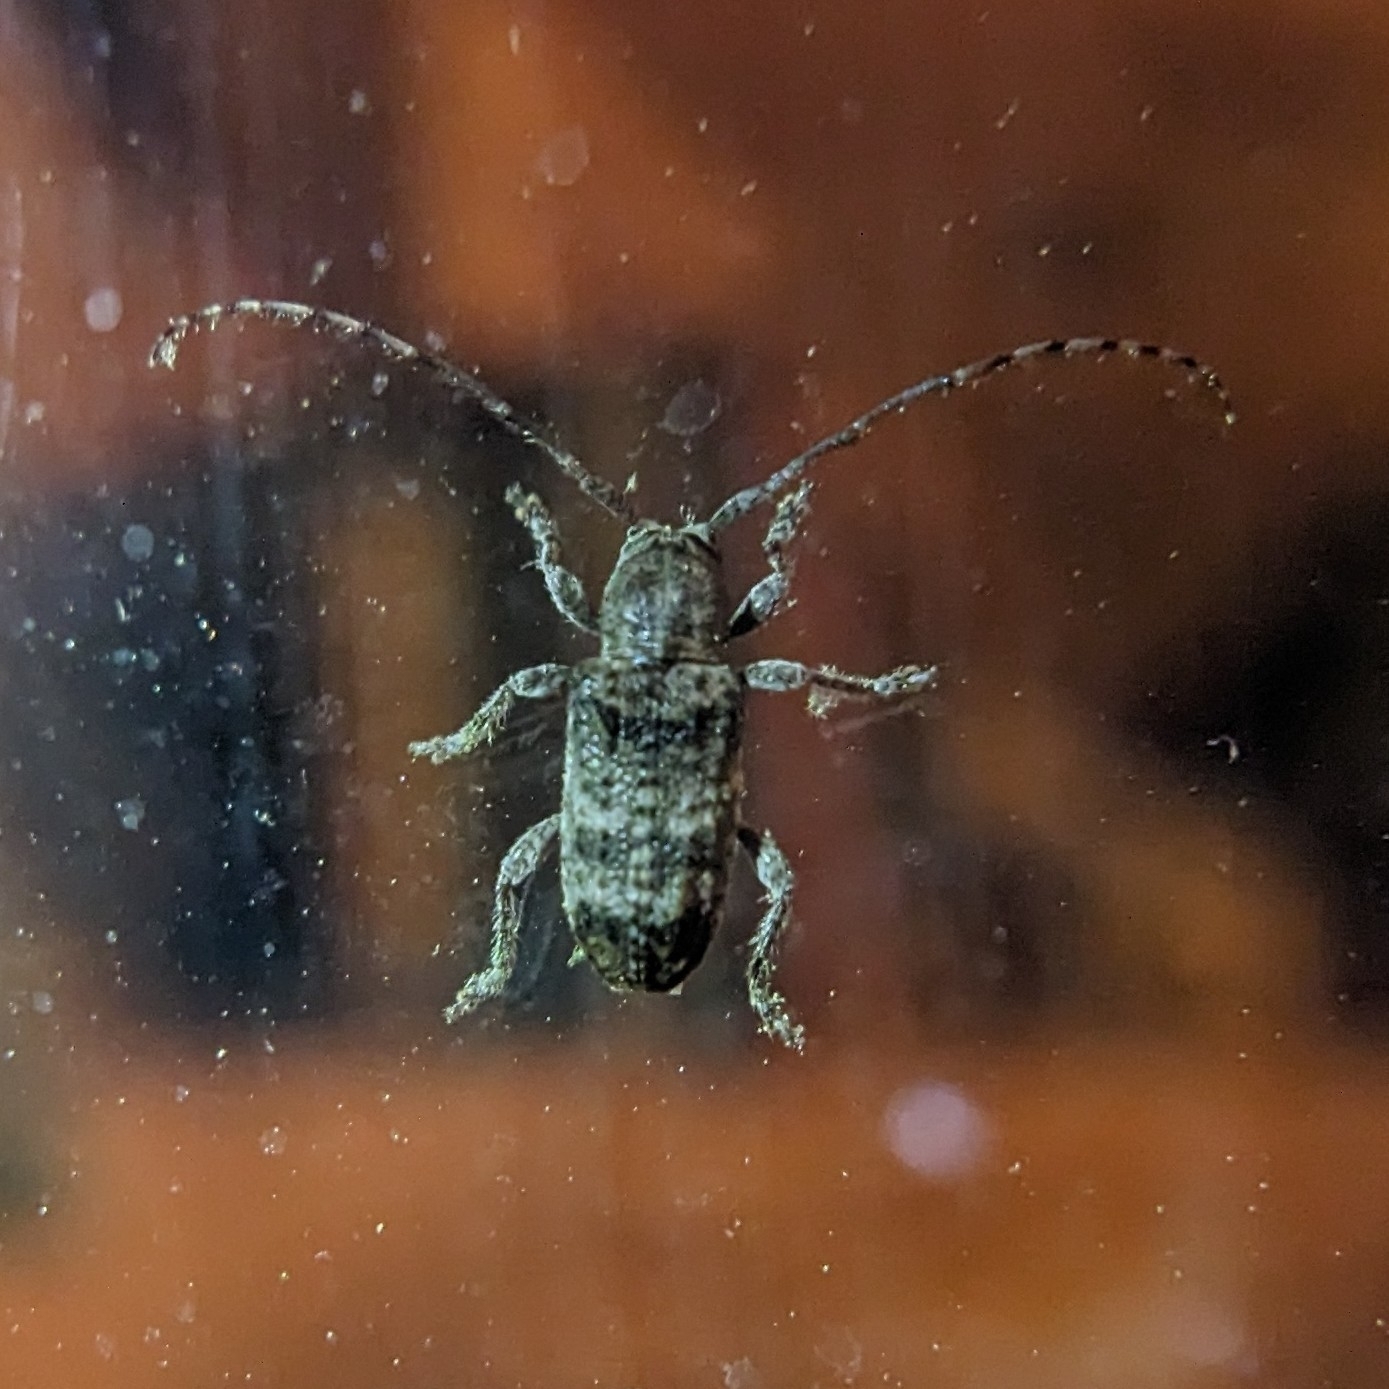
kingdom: Animalia
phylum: Arthropoda
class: Insecta
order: Coleoptera
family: Cerambycidae
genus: Ecyrus
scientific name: Ecyrus dasycerus
